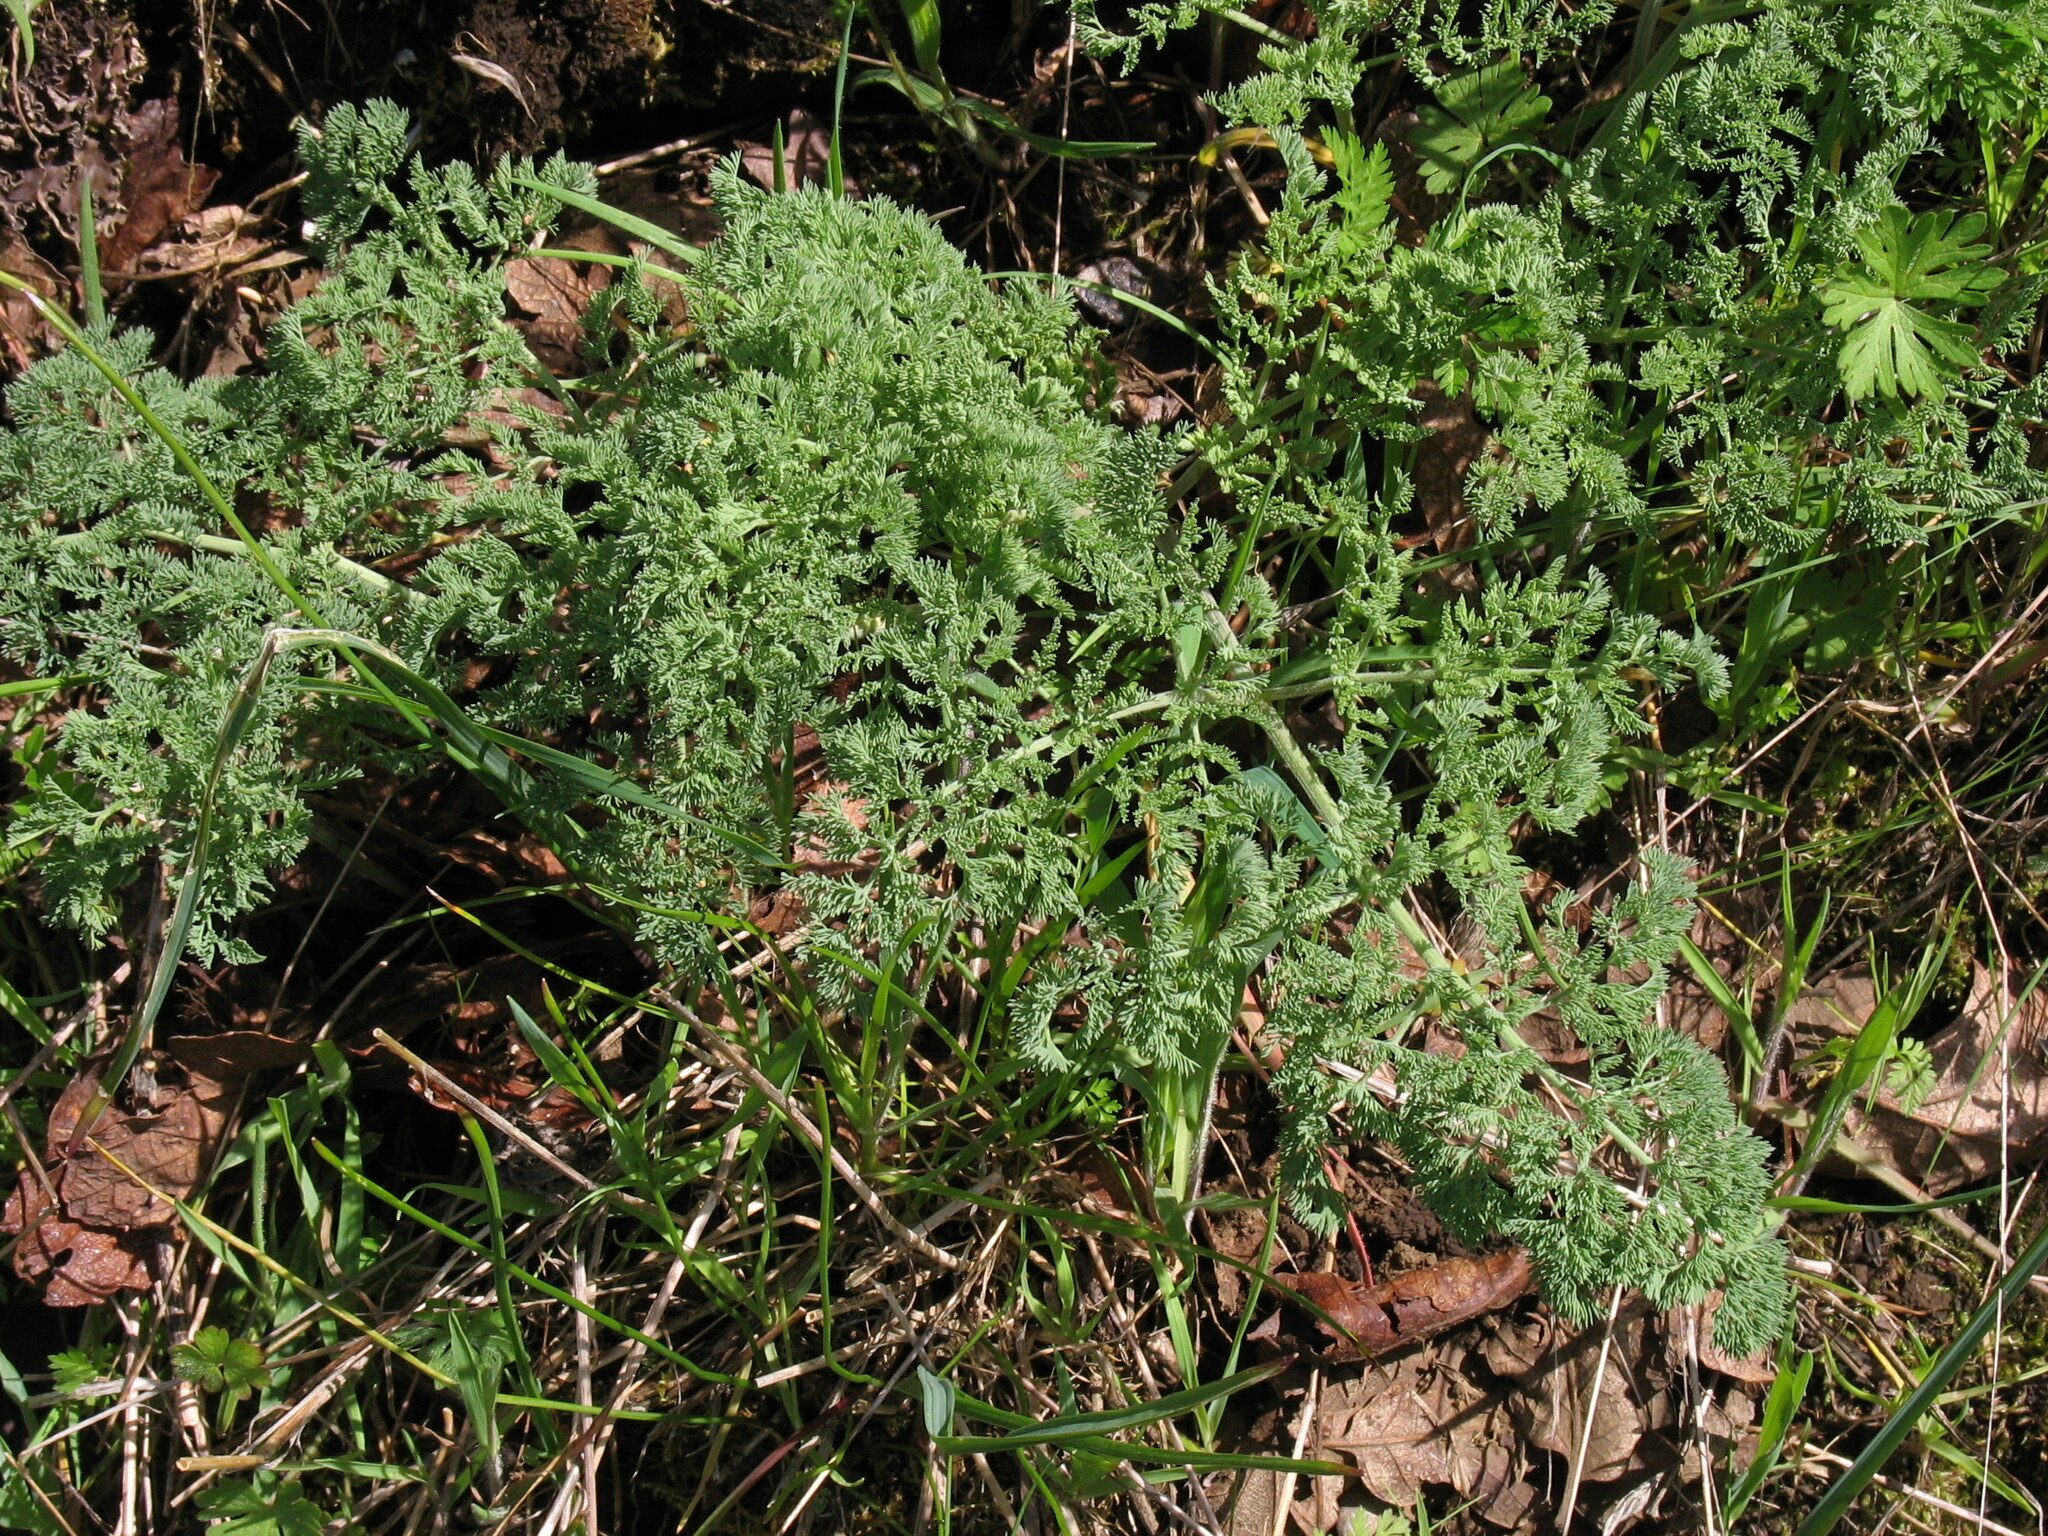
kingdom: Plantae
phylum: Tracheophyta
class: Magnoliopsida
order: Apiales
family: Apiaceae
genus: Lomatium
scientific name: Lomatium macrocarpum
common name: Big-seed biscuitroot
